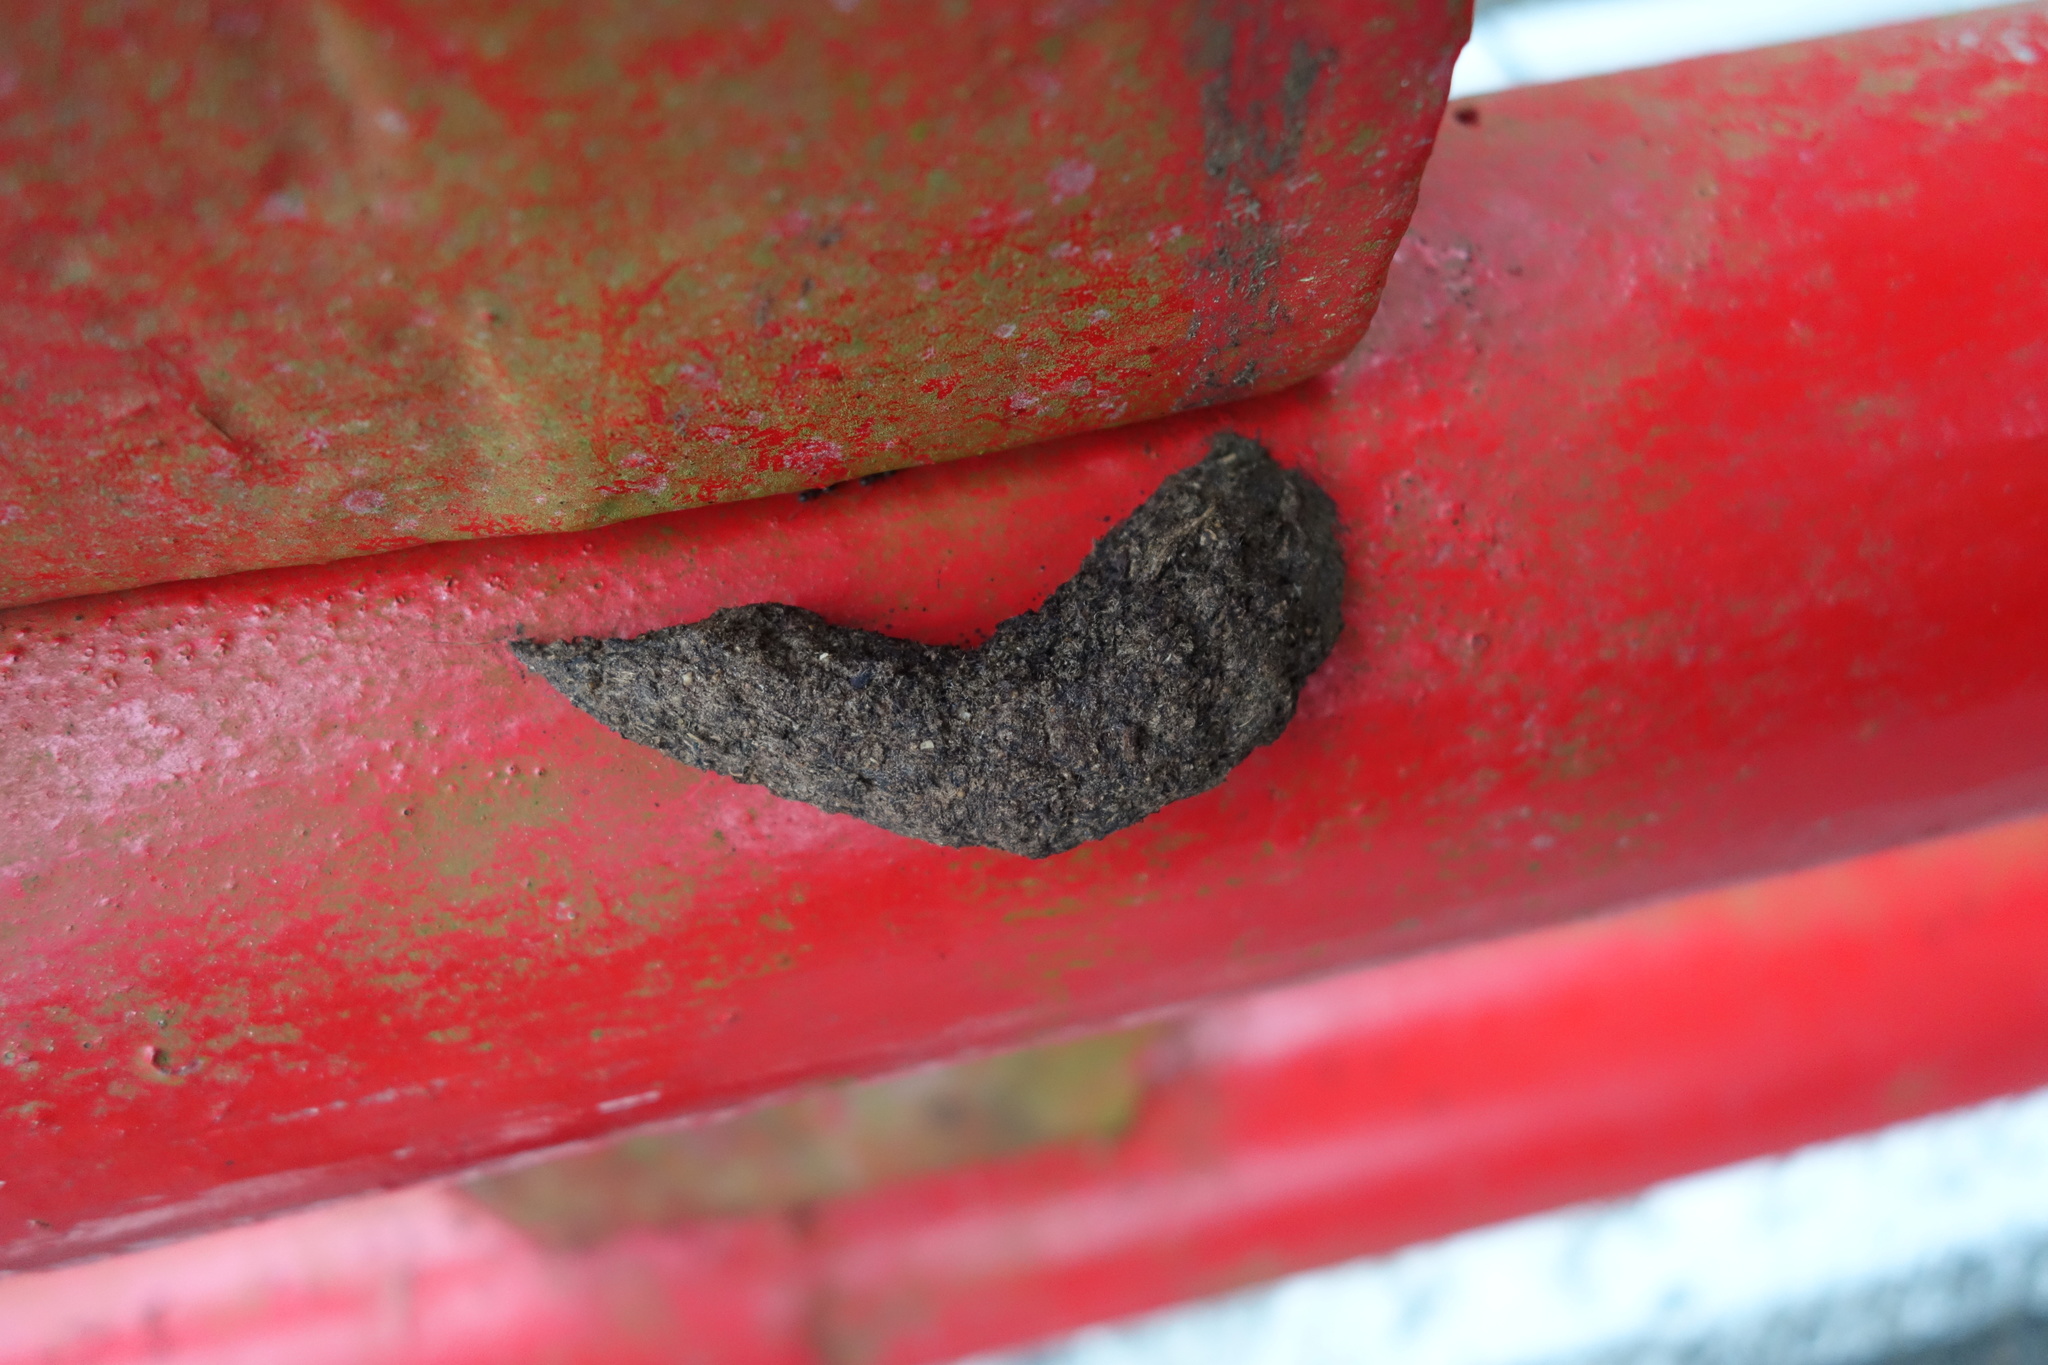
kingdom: Animalia
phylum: Chordata
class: Mammalia
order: Primates
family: Cercopithecidae
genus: Macaca
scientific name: Macaca cyclopis
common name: Formosan rock macaque
